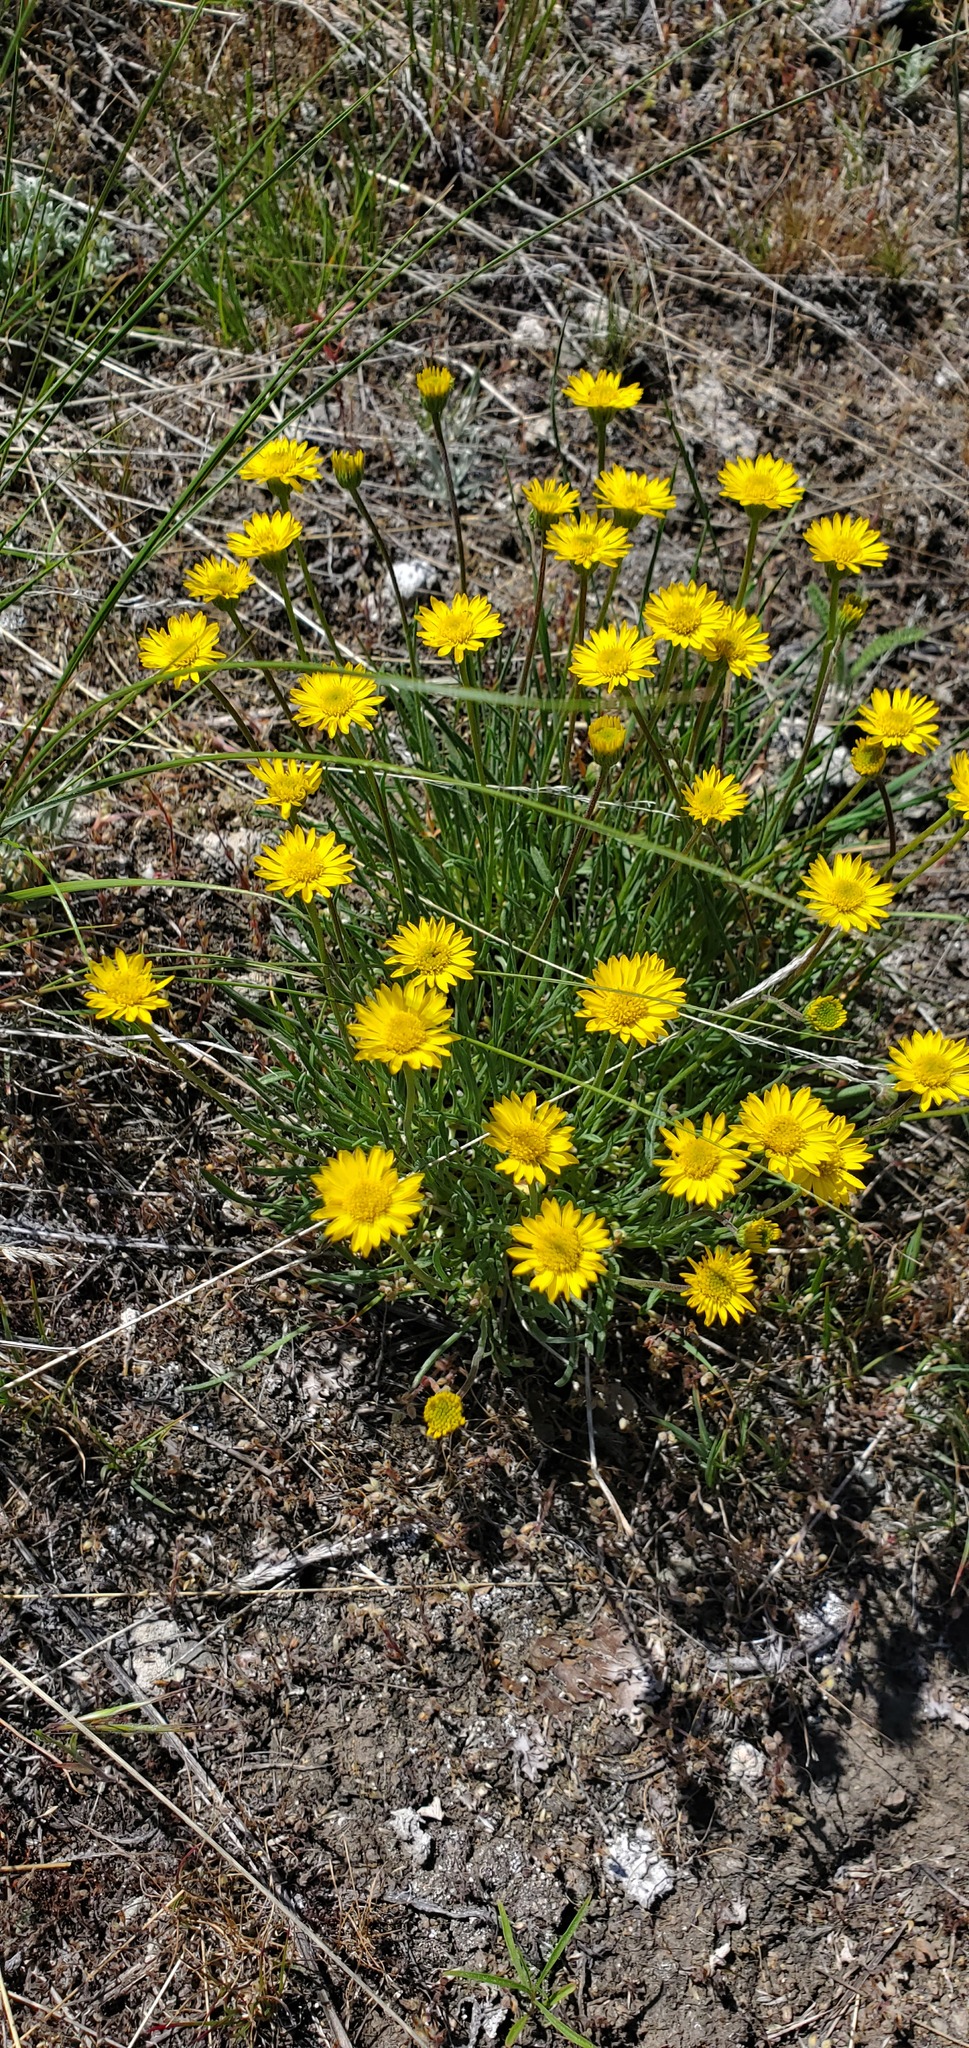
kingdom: Plantae
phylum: Tracheophyta
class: Magnoliopsida
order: Asterales
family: Asteraceae
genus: Erigeron
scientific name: Erigeron linearis
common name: Desert yellow fleabane
